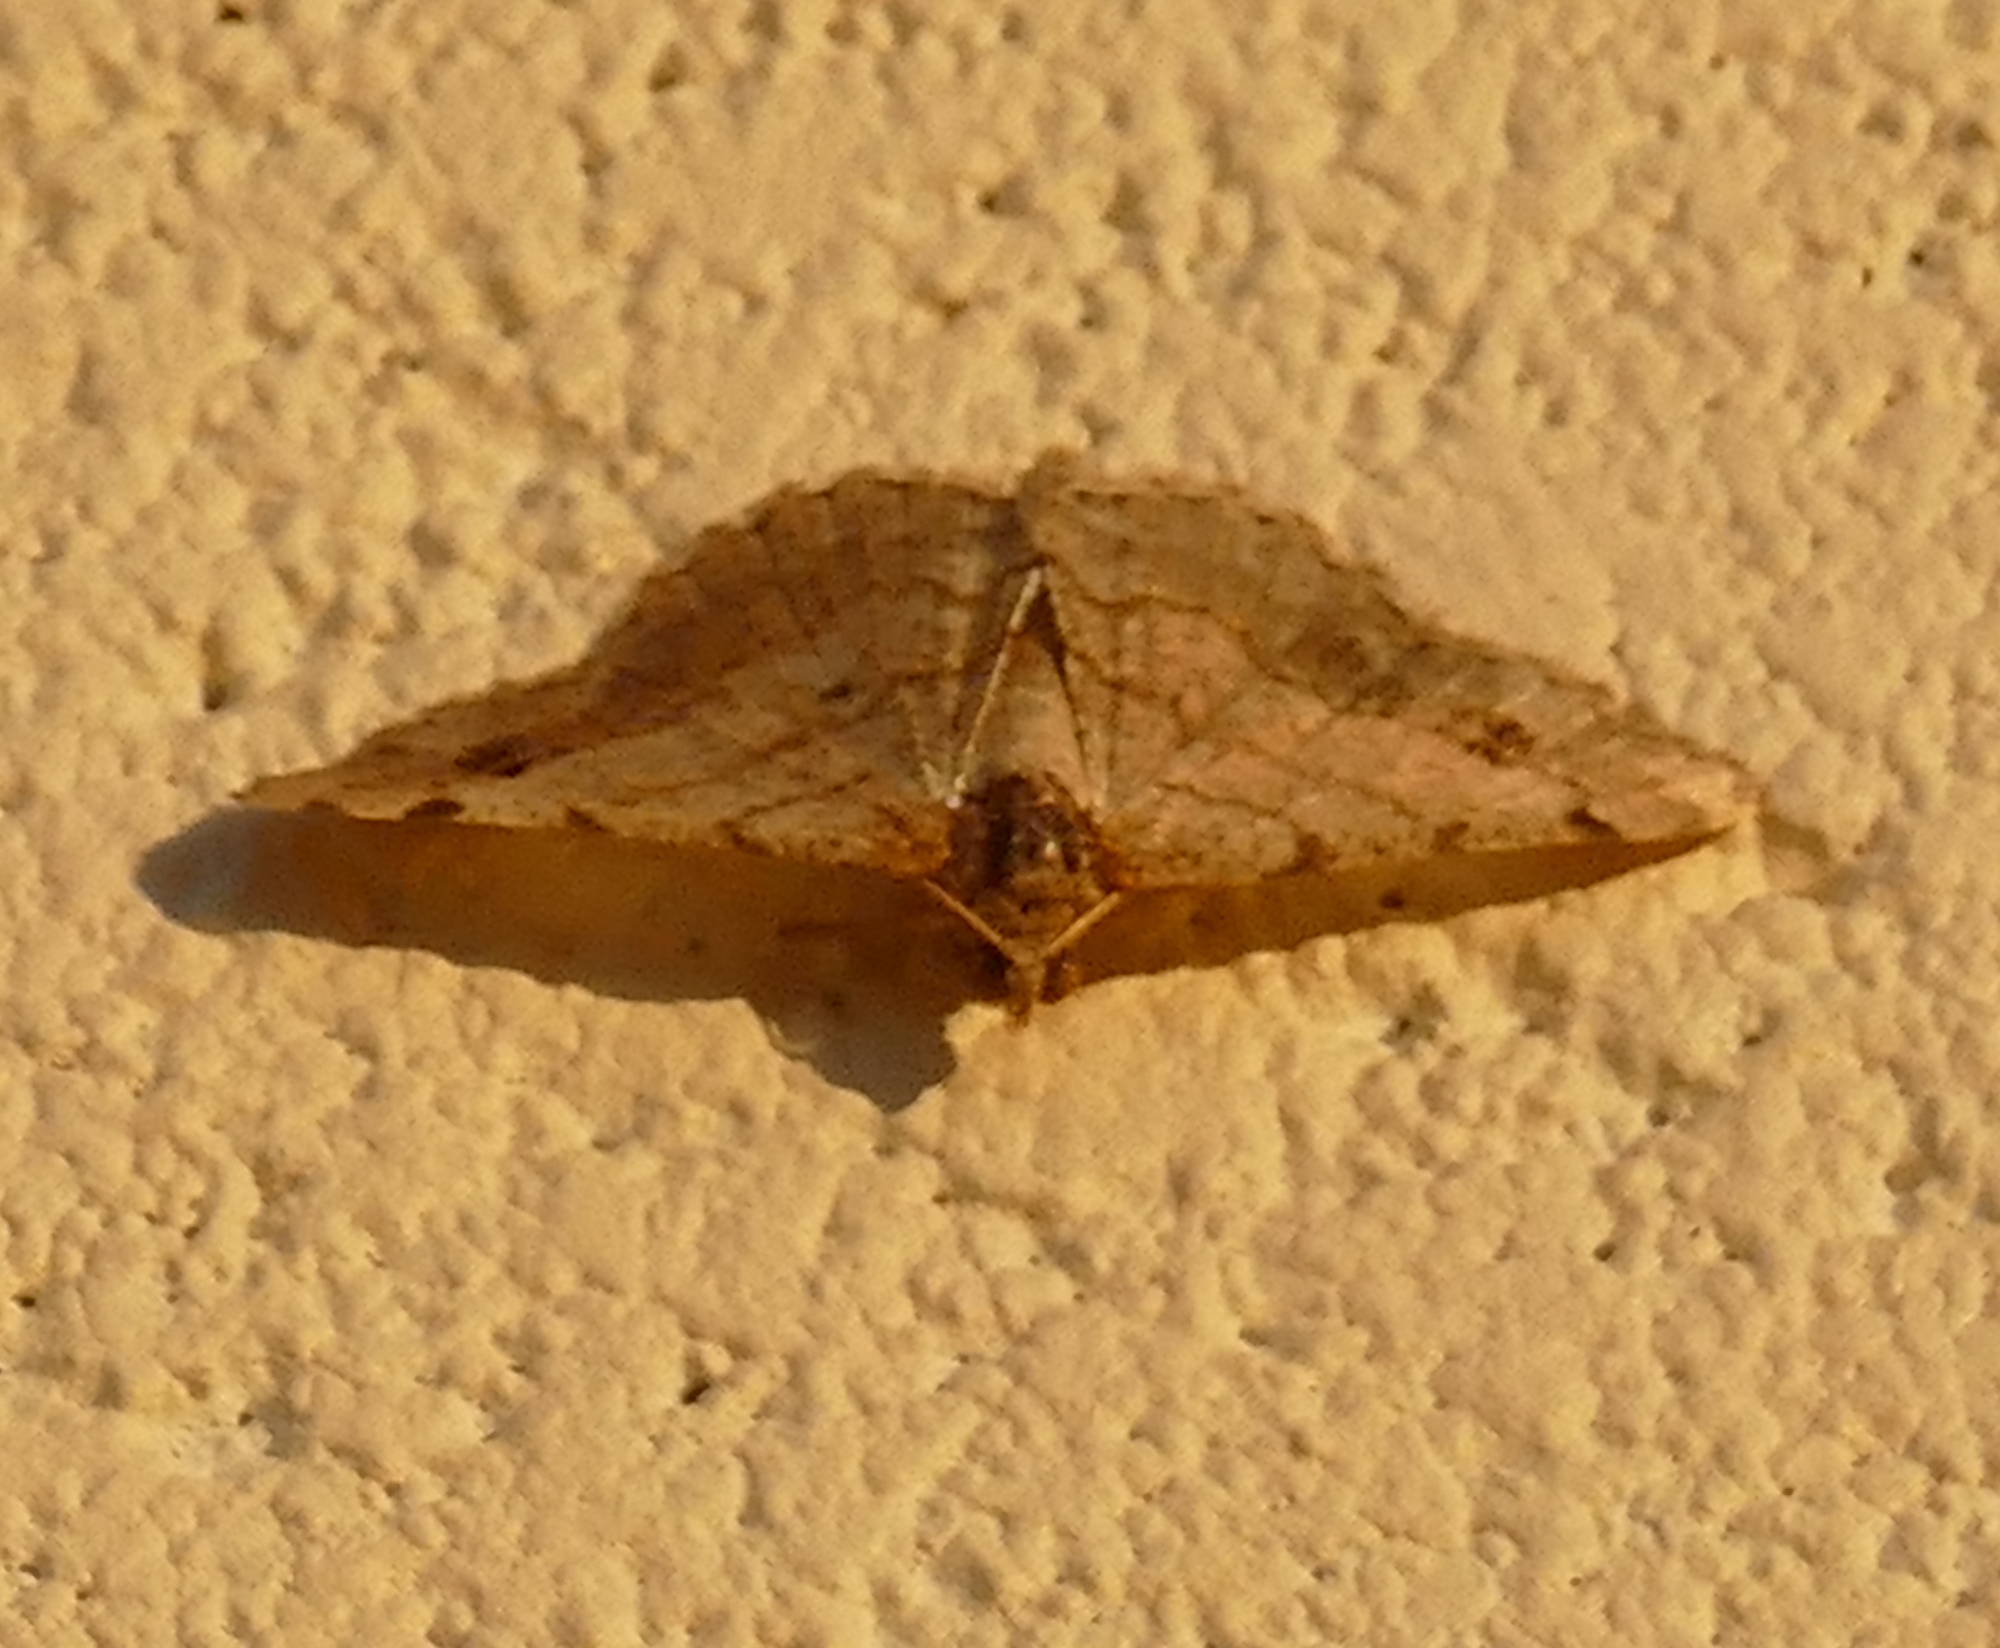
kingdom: Animalia
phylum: Arthropoda
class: Insecta
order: Lepidoptera
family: Geometridae
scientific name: Geometridae
